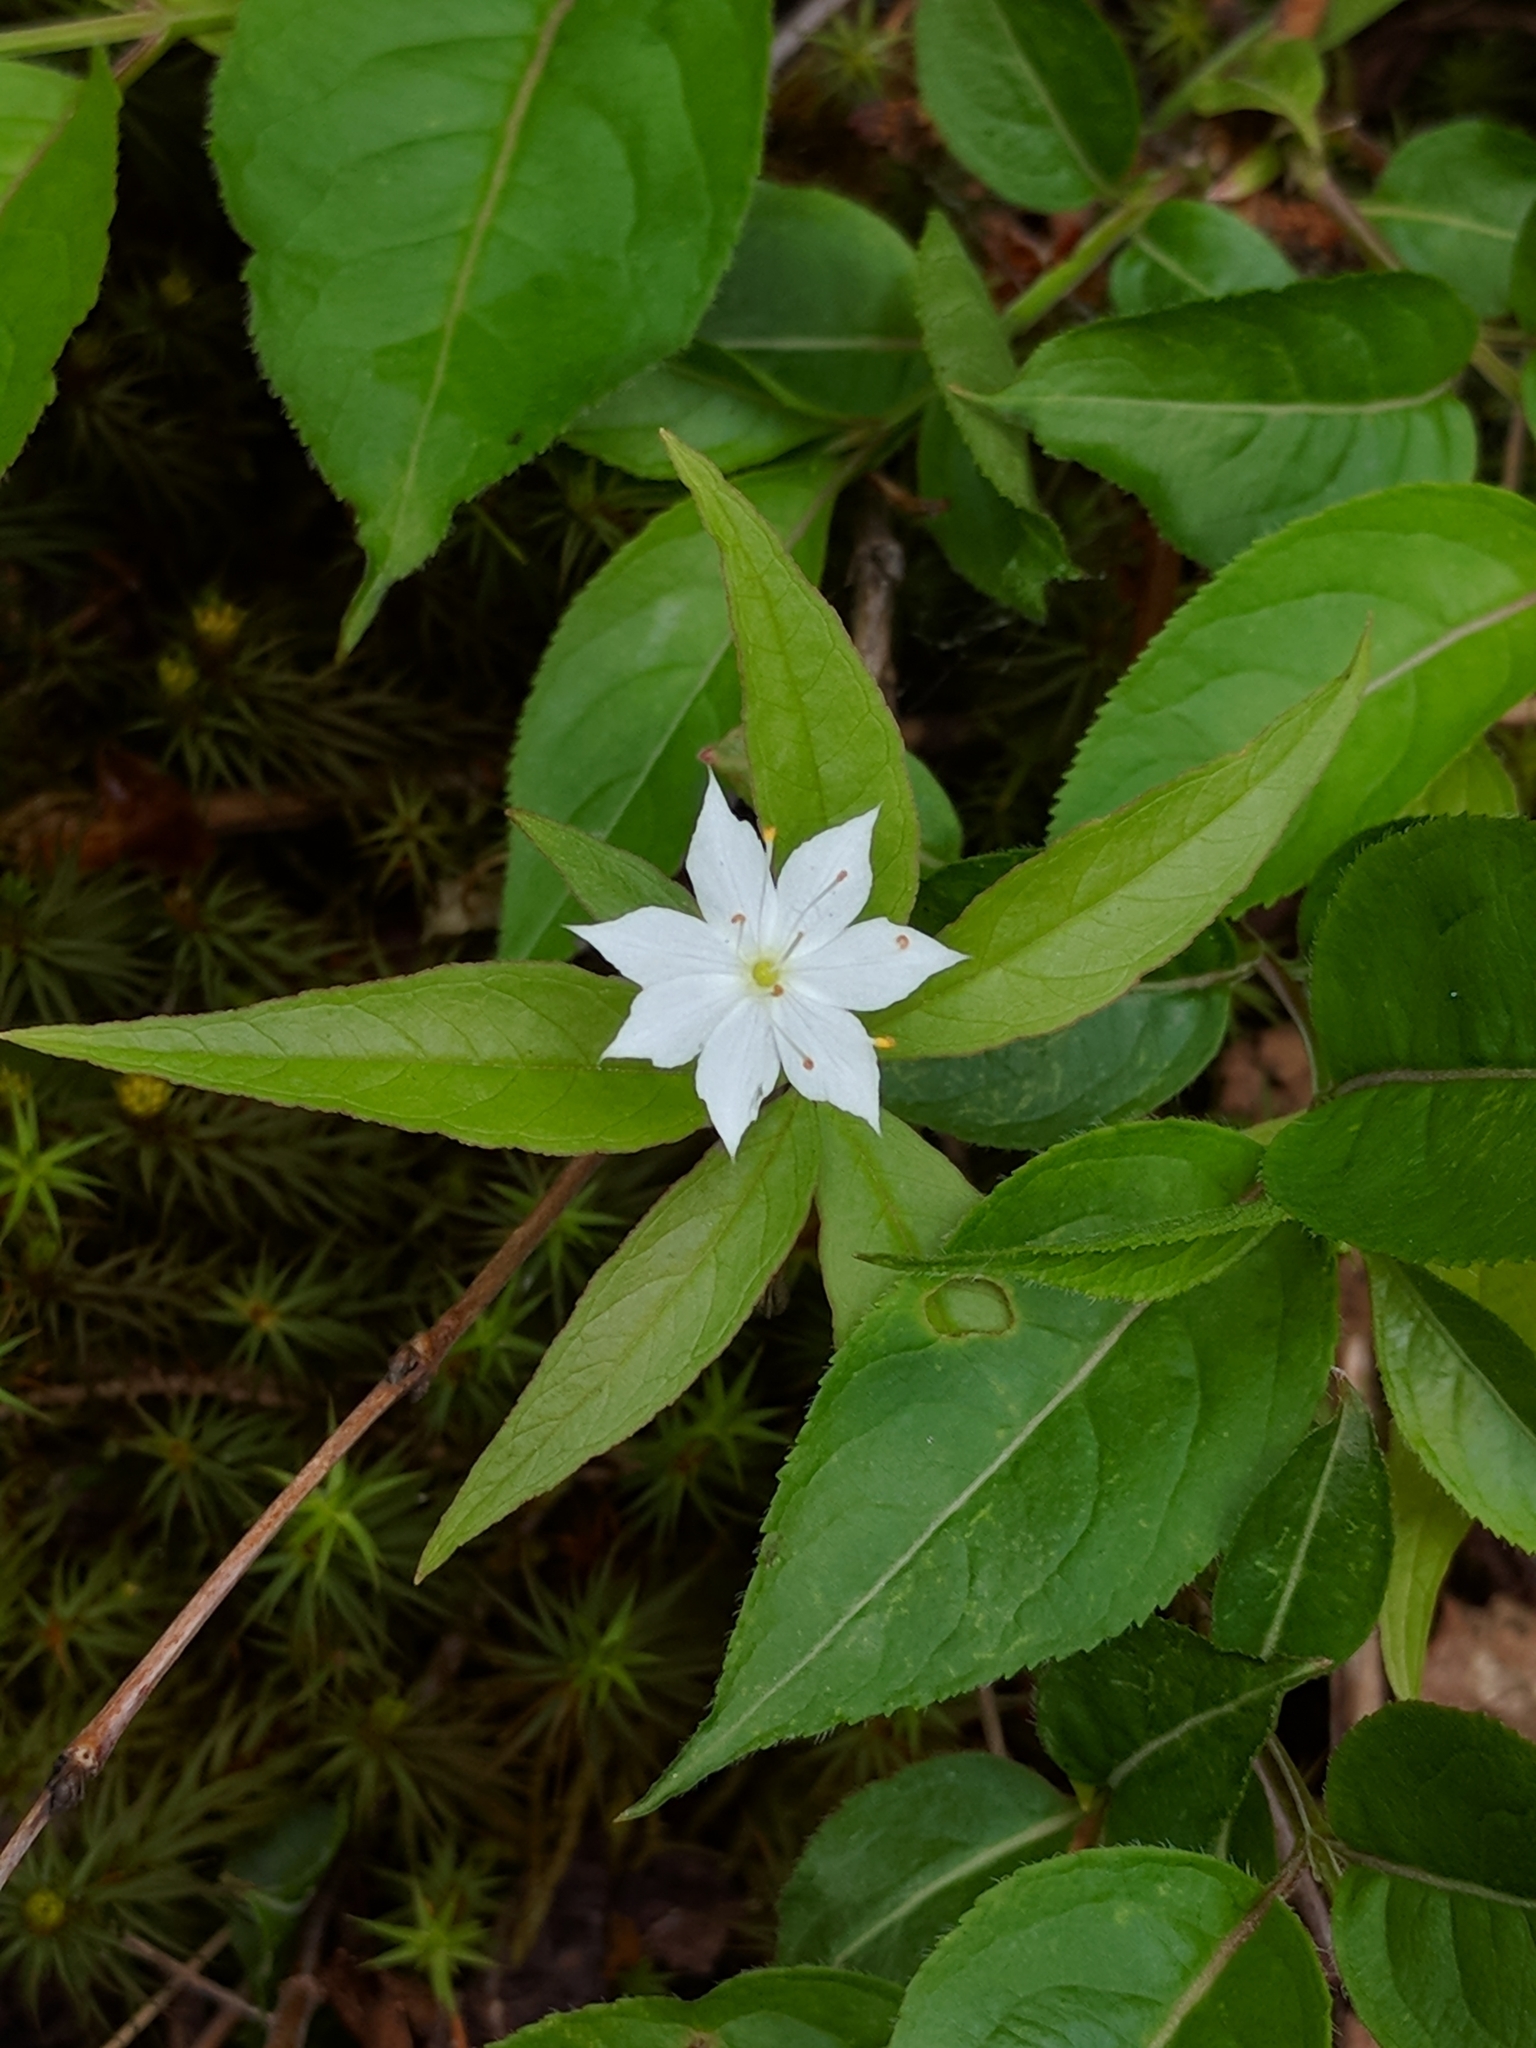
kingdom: Plantae
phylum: Tracheophyta
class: Magnoliopsida
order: Ericales
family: Primulaceae
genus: Lysimachia
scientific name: Lysimachia borealis
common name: American starflower
